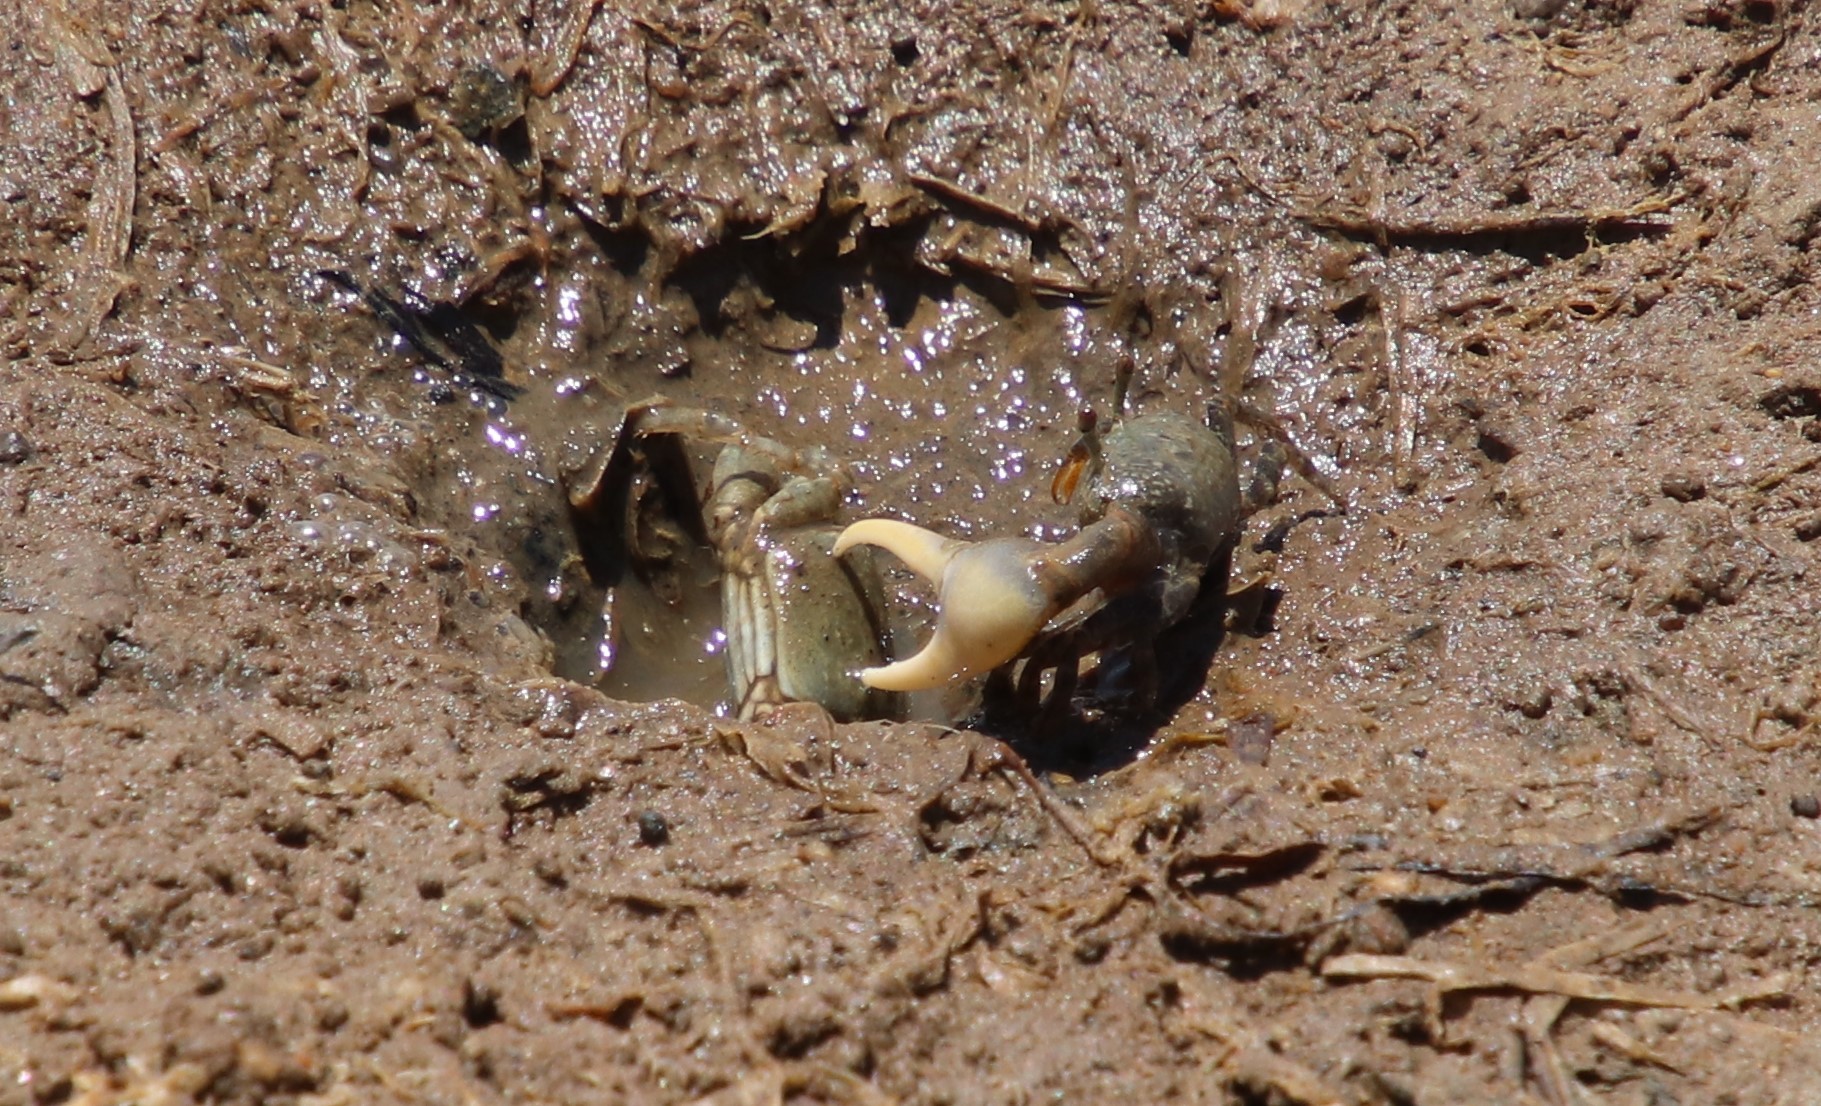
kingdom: Animalia
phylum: Arthropoda
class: Malacostraca
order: Decapoda
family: Ocypodidae
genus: Leptuca
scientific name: Leptuca crenulata
